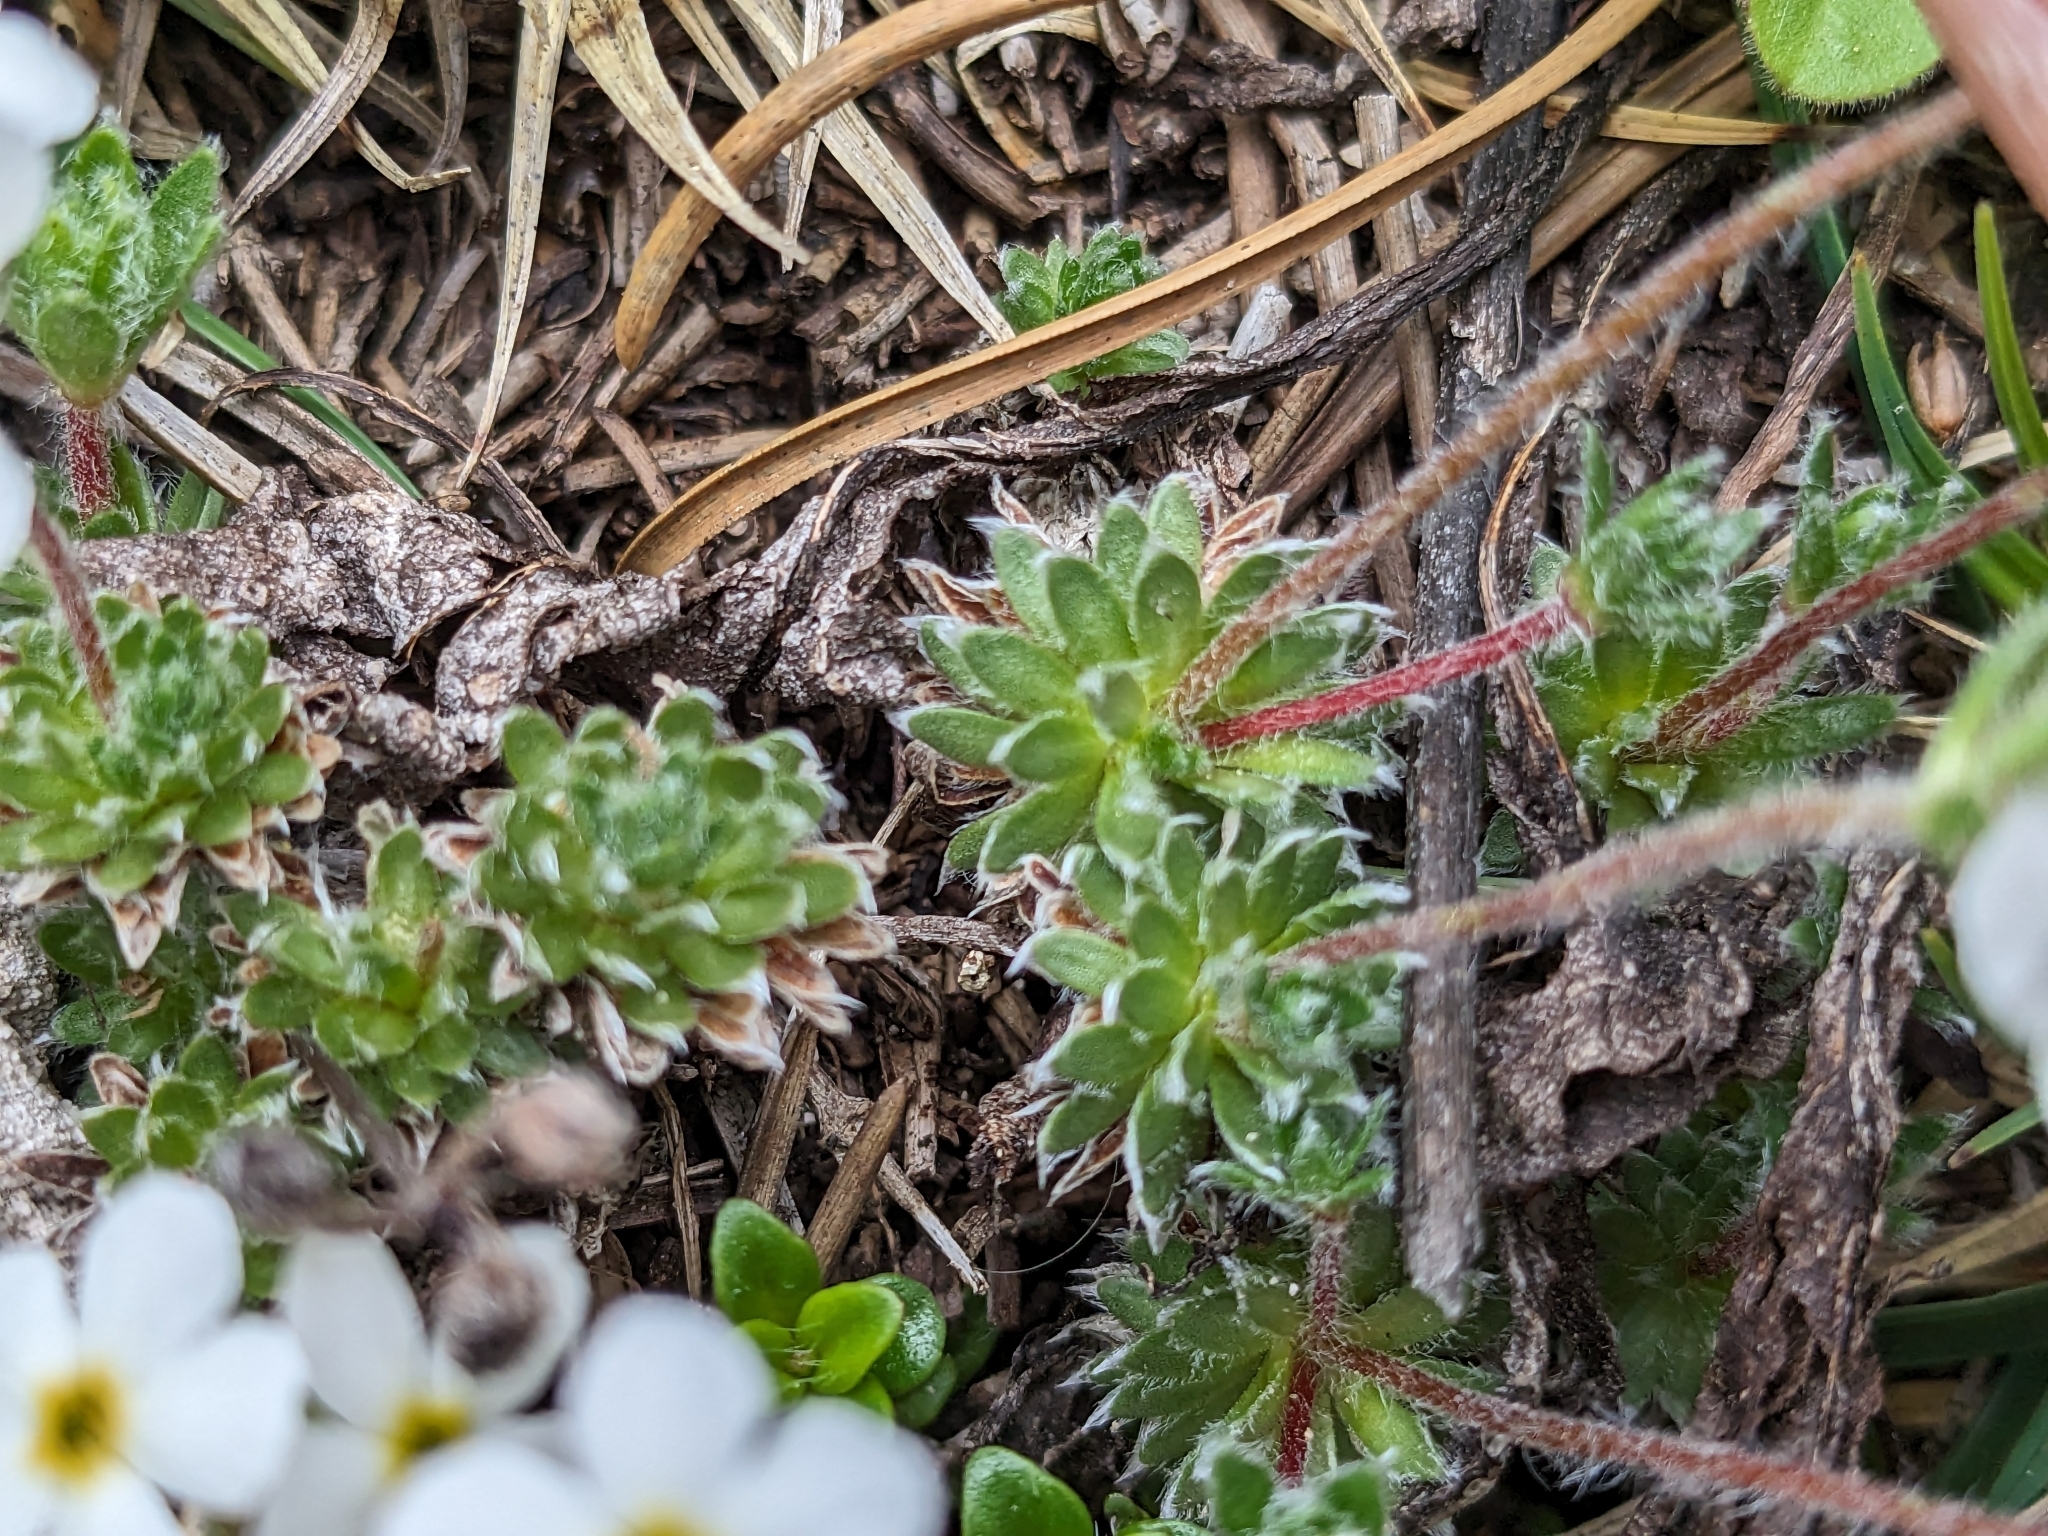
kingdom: Plantae
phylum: Tracheophyta
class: Magnoliopsida
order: Ericales
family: Primulaceae
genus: Androsace
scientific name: Androsace villosa
